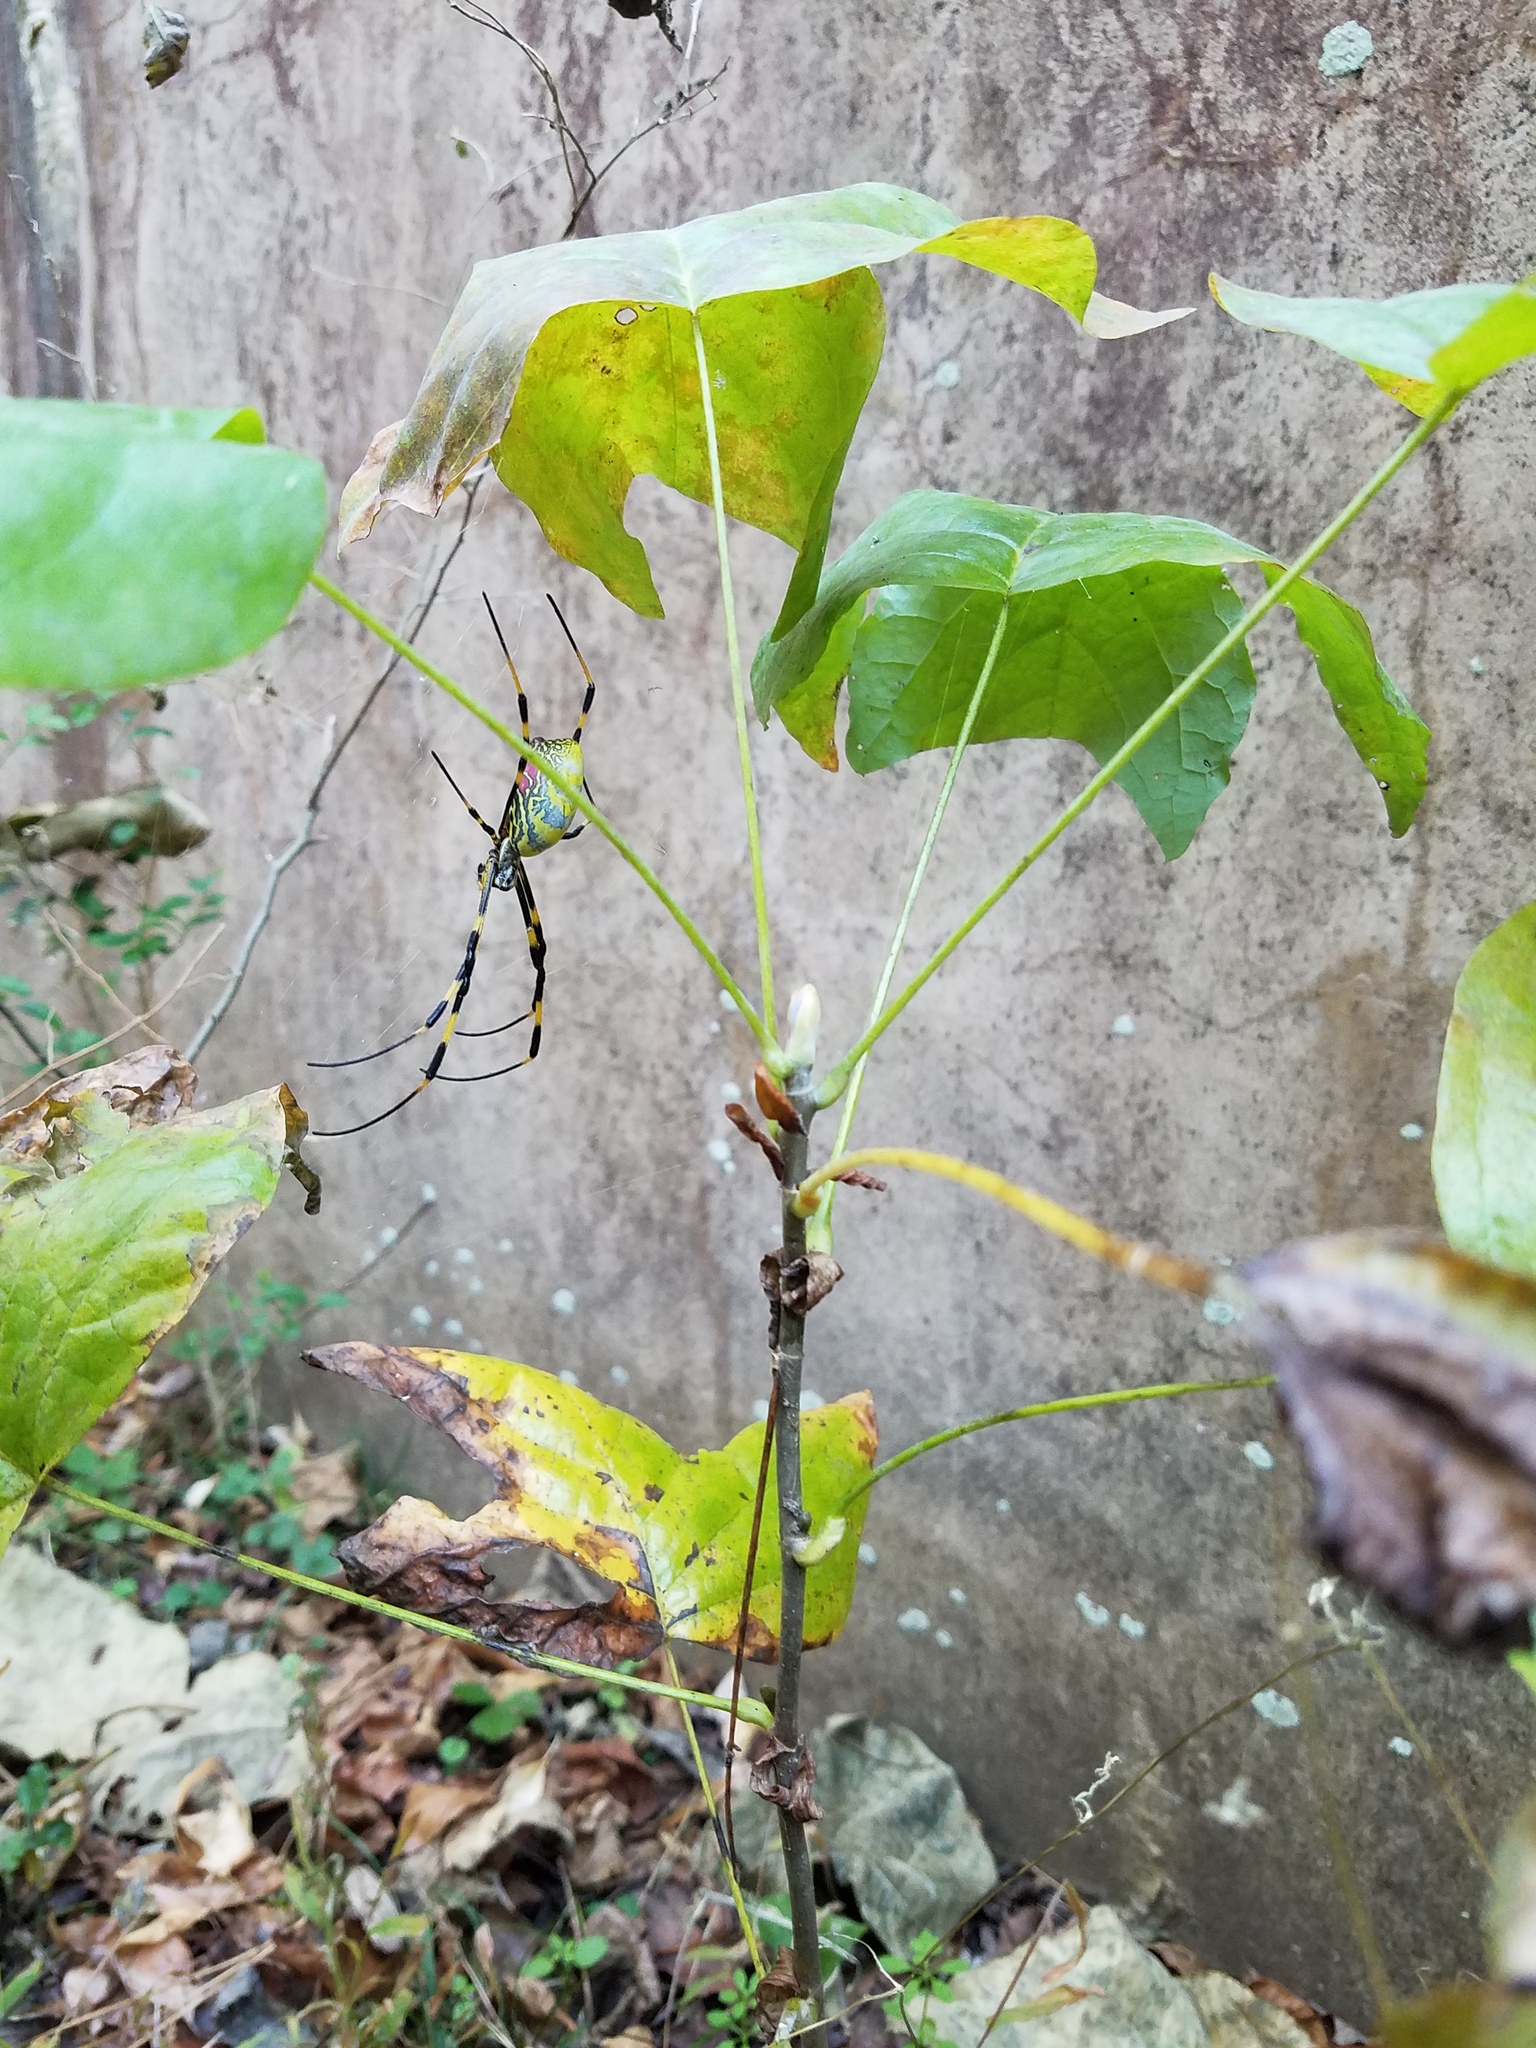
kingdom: Animalia
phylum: Arthropoda
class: Arachnida
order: Araneae
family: Araneidae
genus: Trichonephila
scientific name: Trichonephila clavata
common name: Jorō spider
